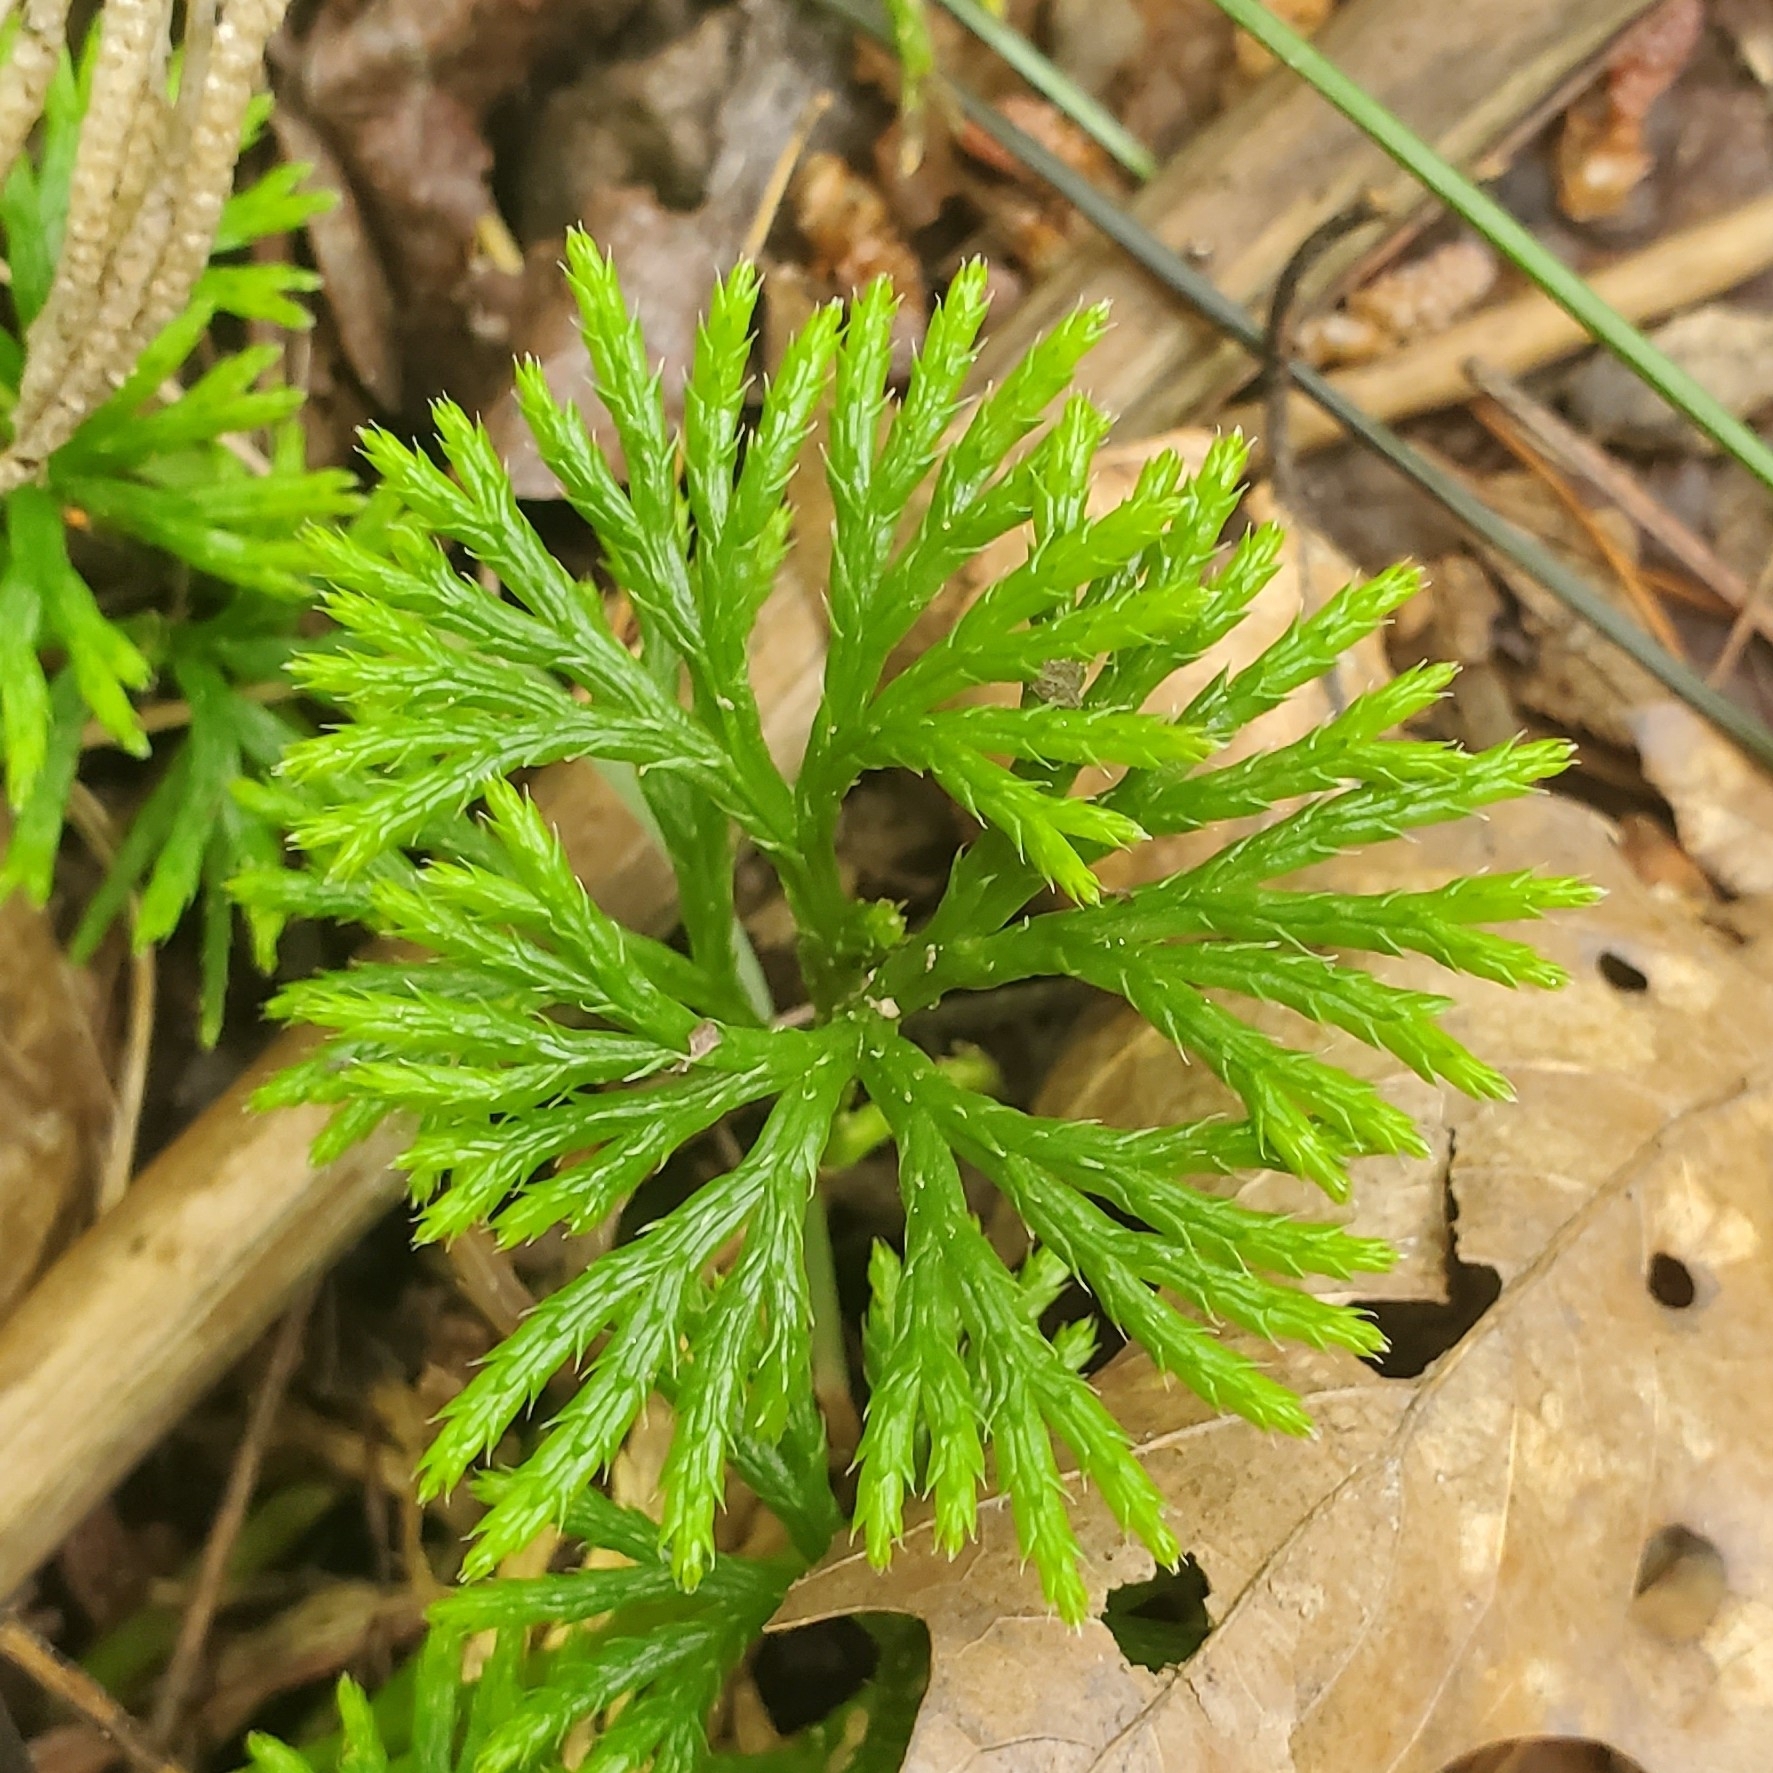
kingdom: Plantae
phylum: Tracheophyta
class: Lycopodiopsida
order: Lycopodiales
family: Lycopodiaceae
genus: Diphasiastrum
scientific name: Diphasiastrum digitatum
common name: Southern running-pine
